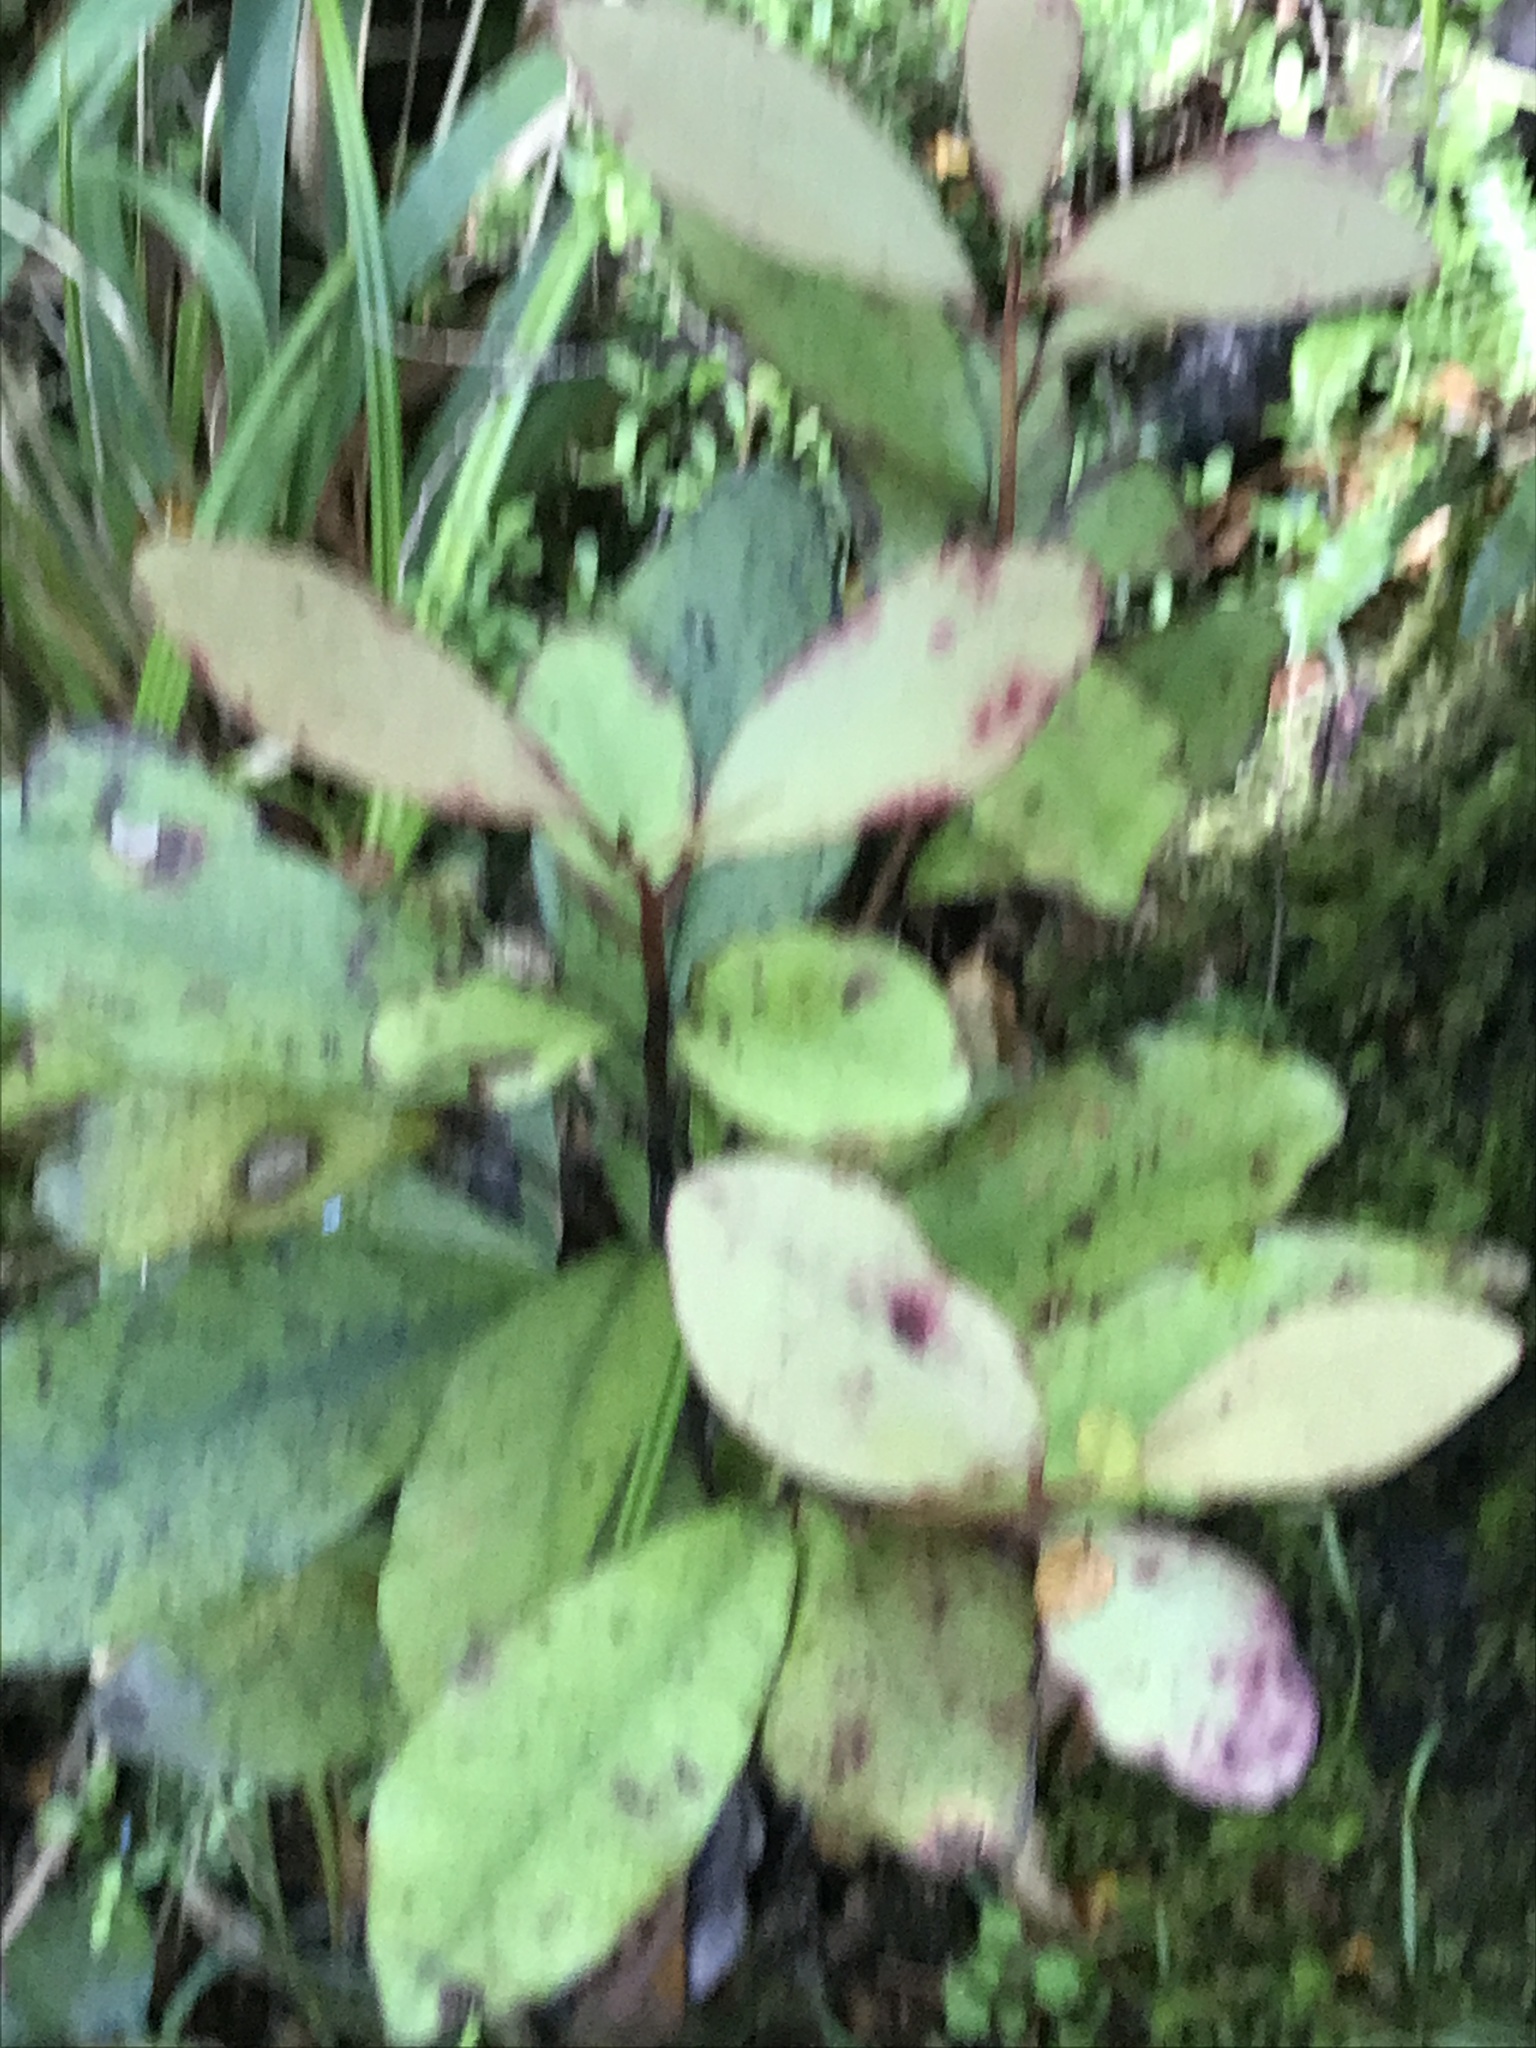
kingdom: Plantae
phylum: Tracheophyta
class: Magnoliopsida
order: Canellales
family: Winteraceae
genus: Pseudowintera
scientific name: Pseudowintera colorata
